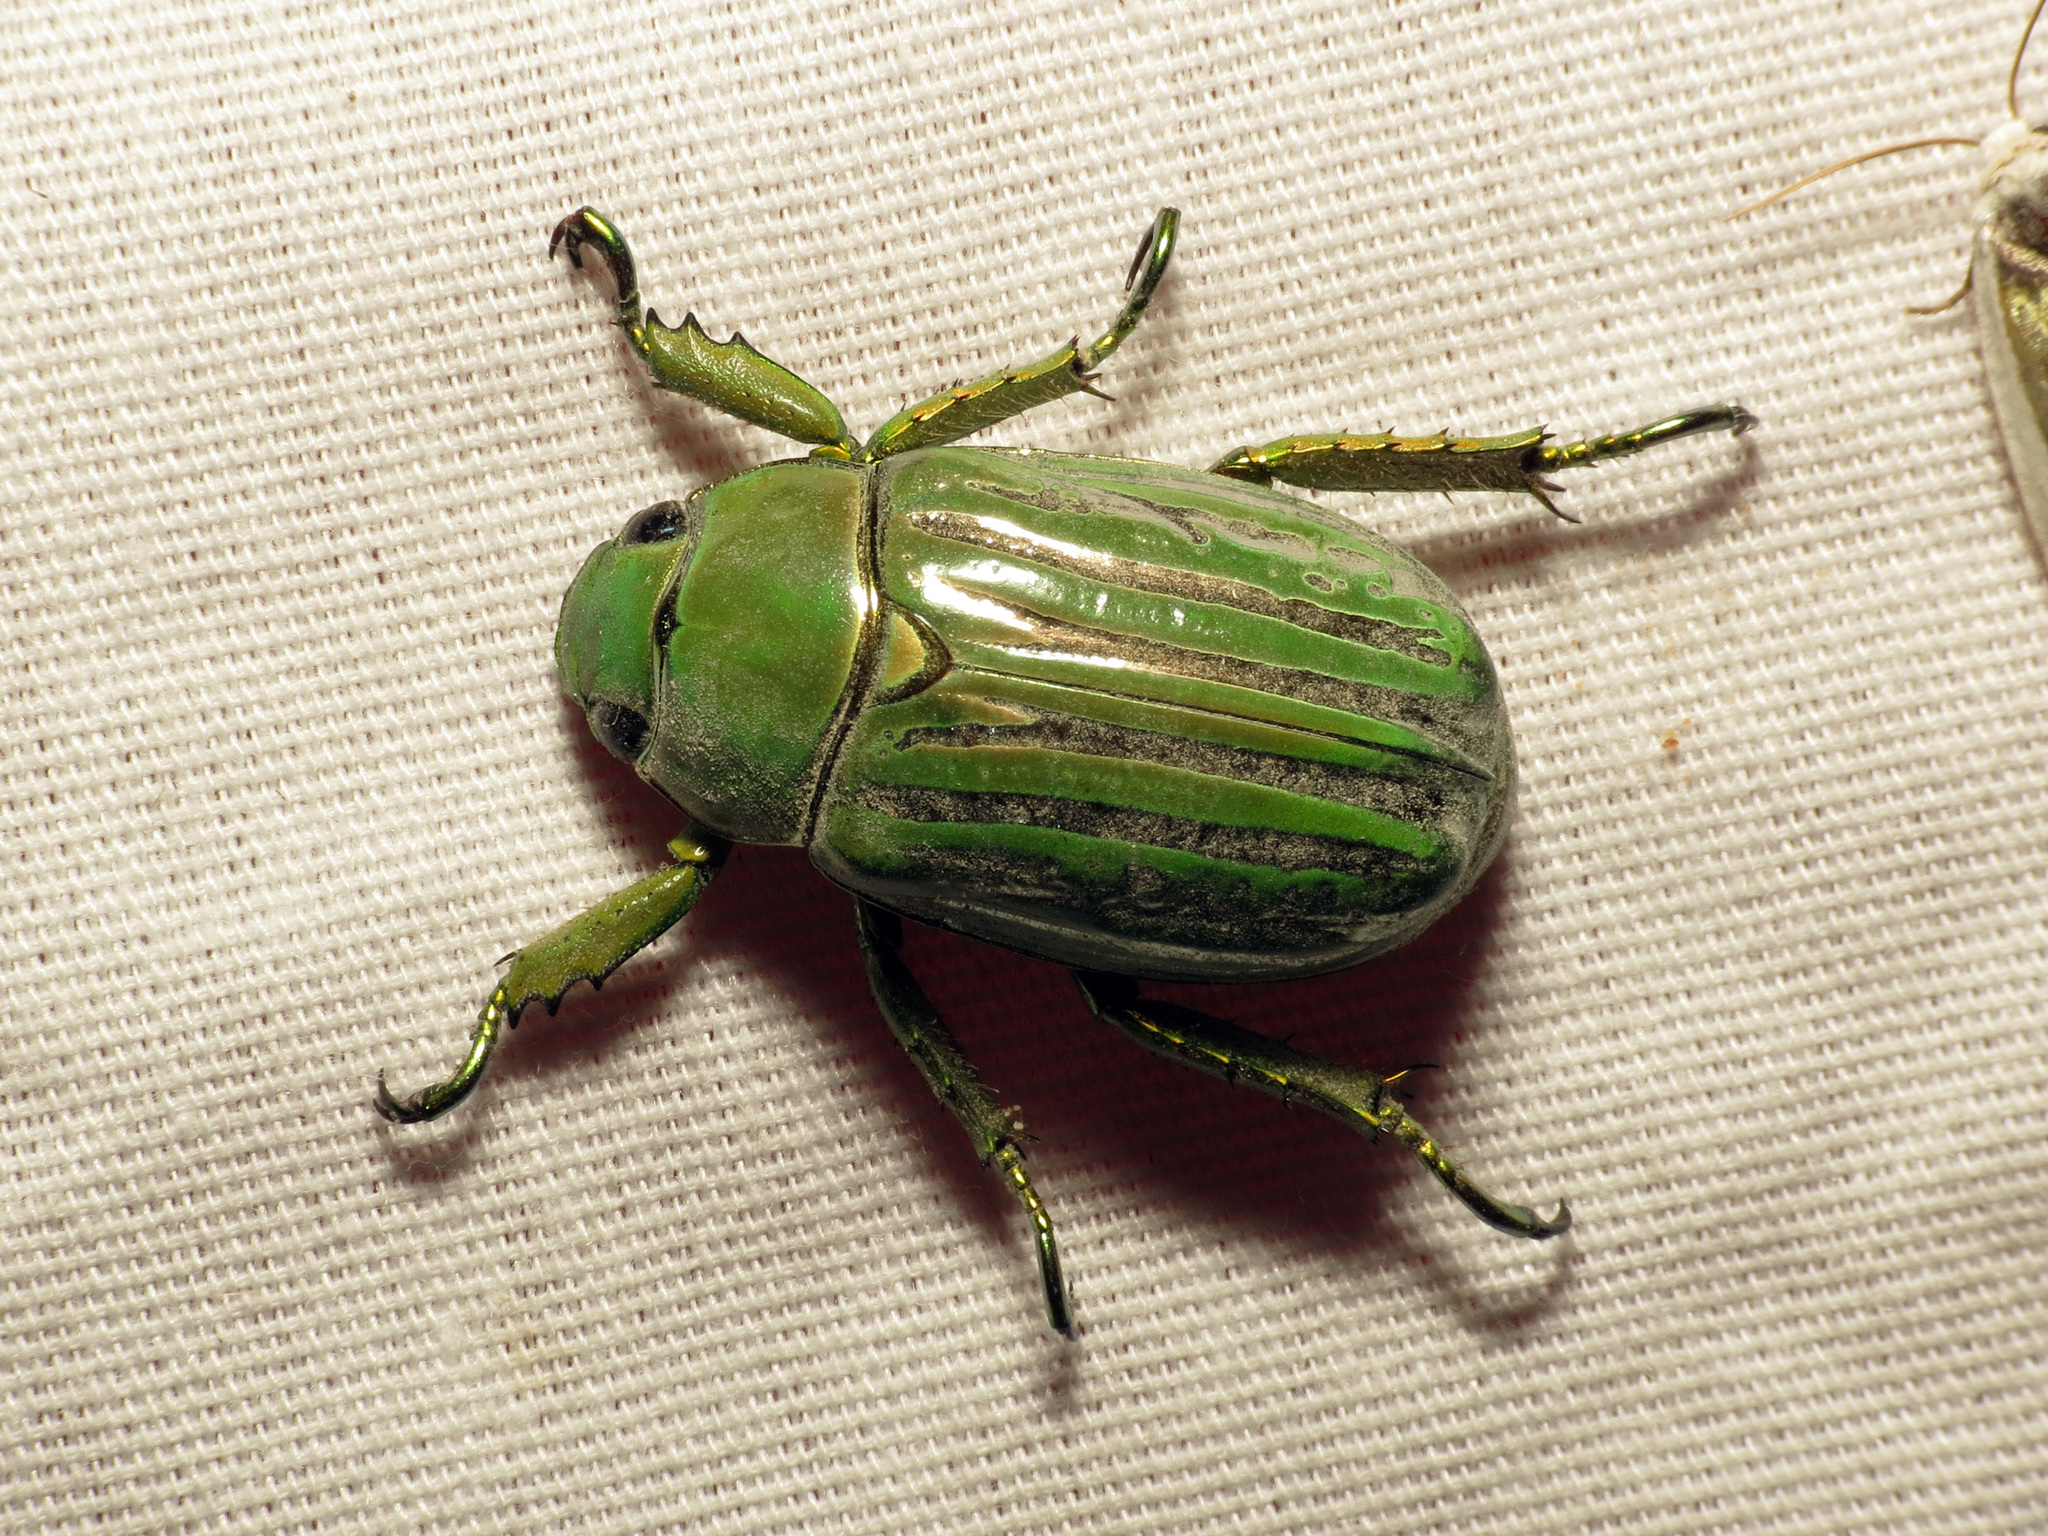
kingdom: Animalia
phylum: Arthropoda
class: Insecta
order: Coleoptera
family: Scarabaeidae
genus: Chrysina
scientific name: Chrysina gloriosa
